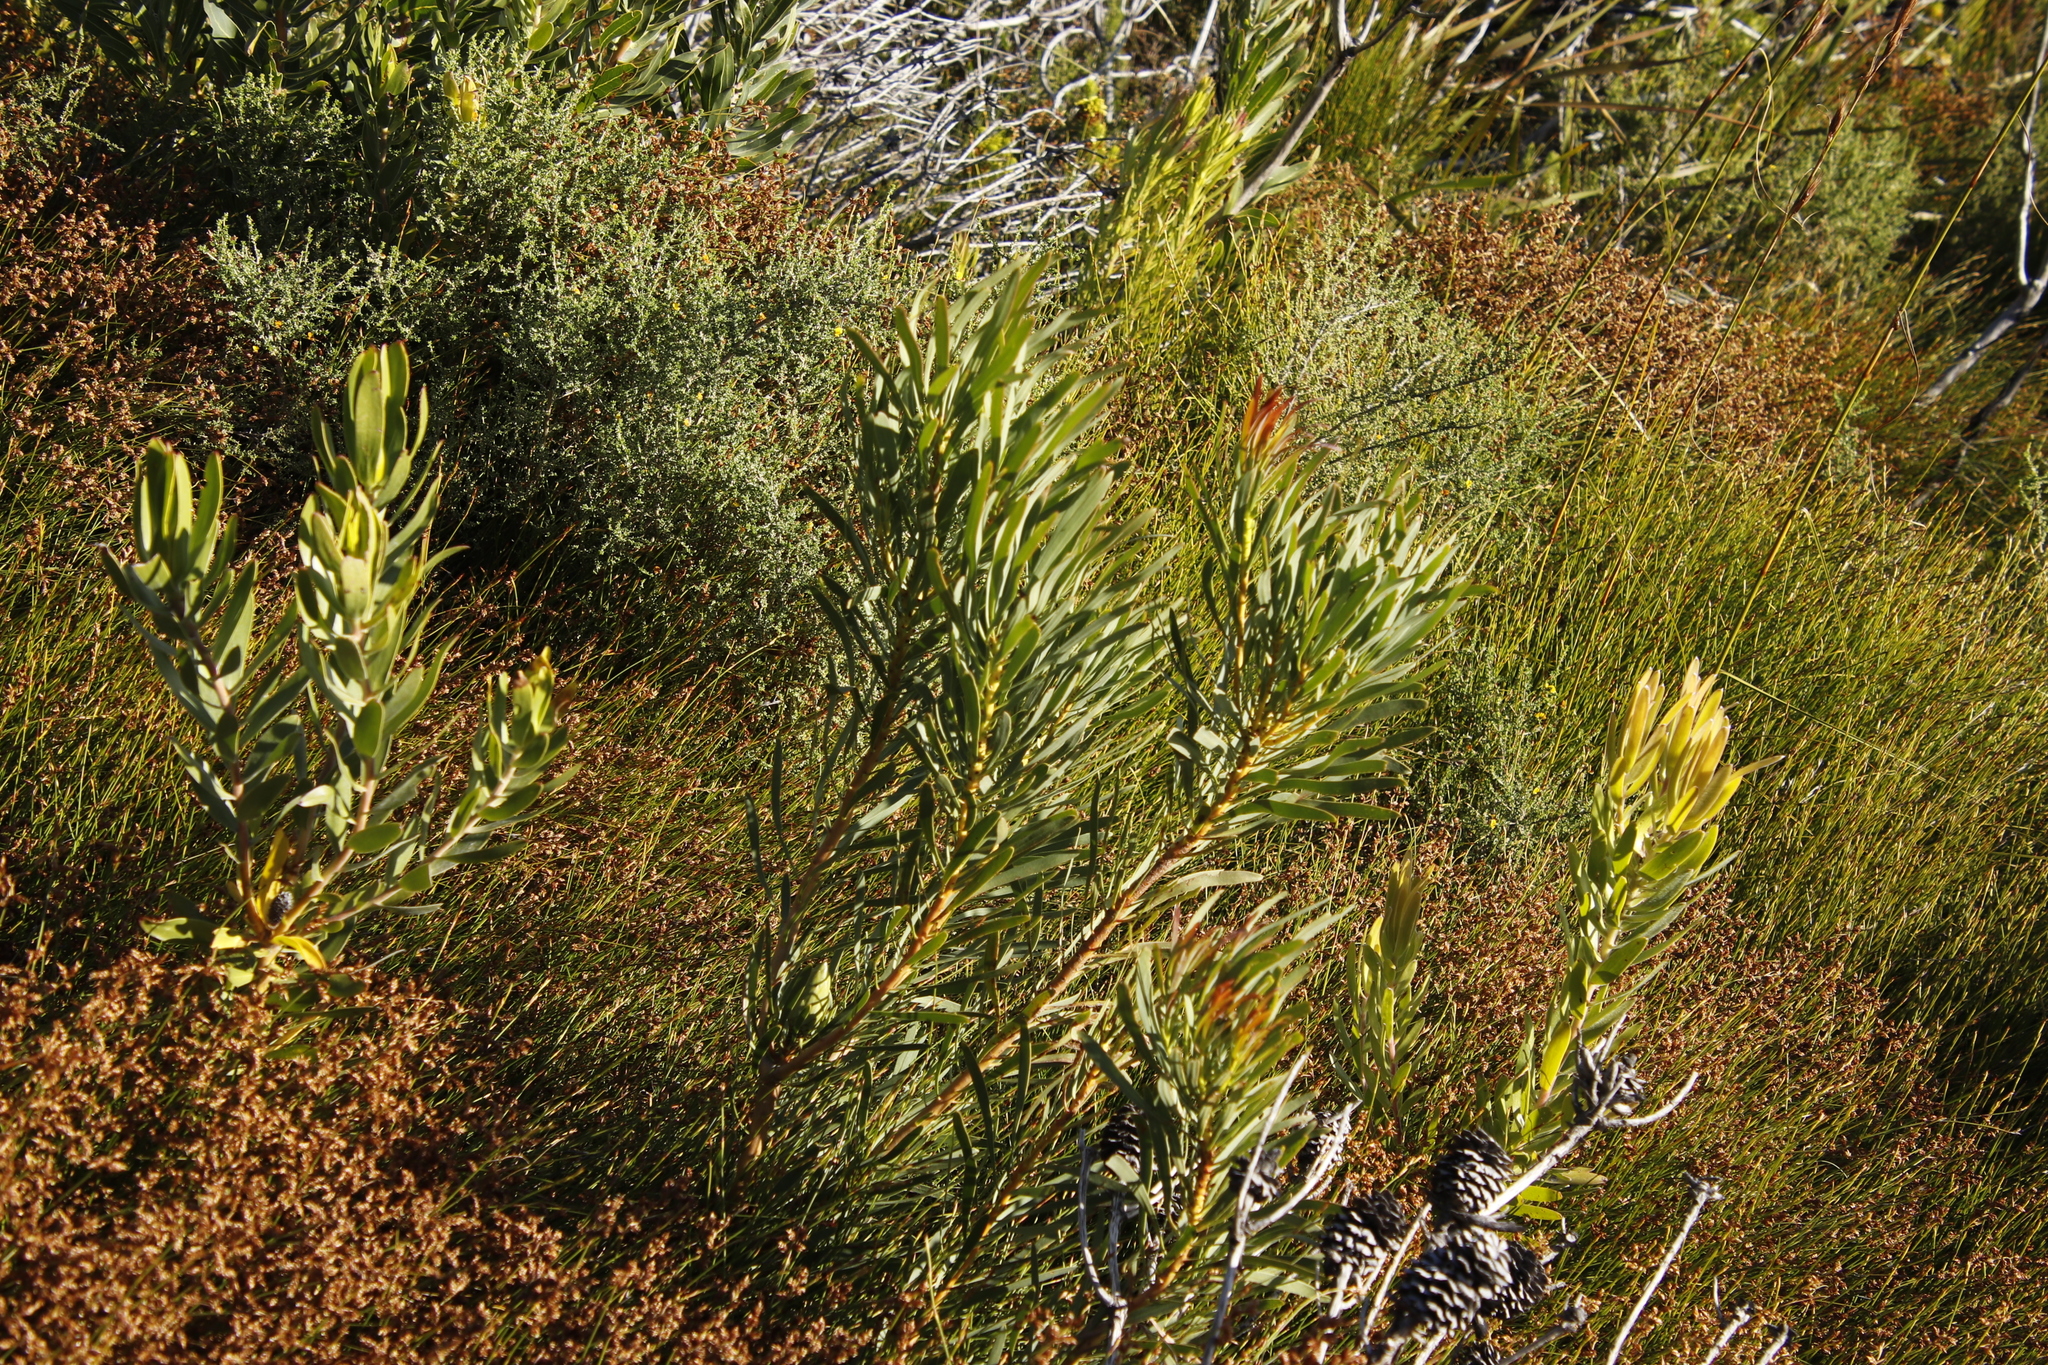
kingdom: Plantae
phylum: Tracheophyta
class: Magnoliopsida
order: Proteales
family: Proteaceae
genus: Protea
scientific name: Protea repens
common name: Sugarbush
